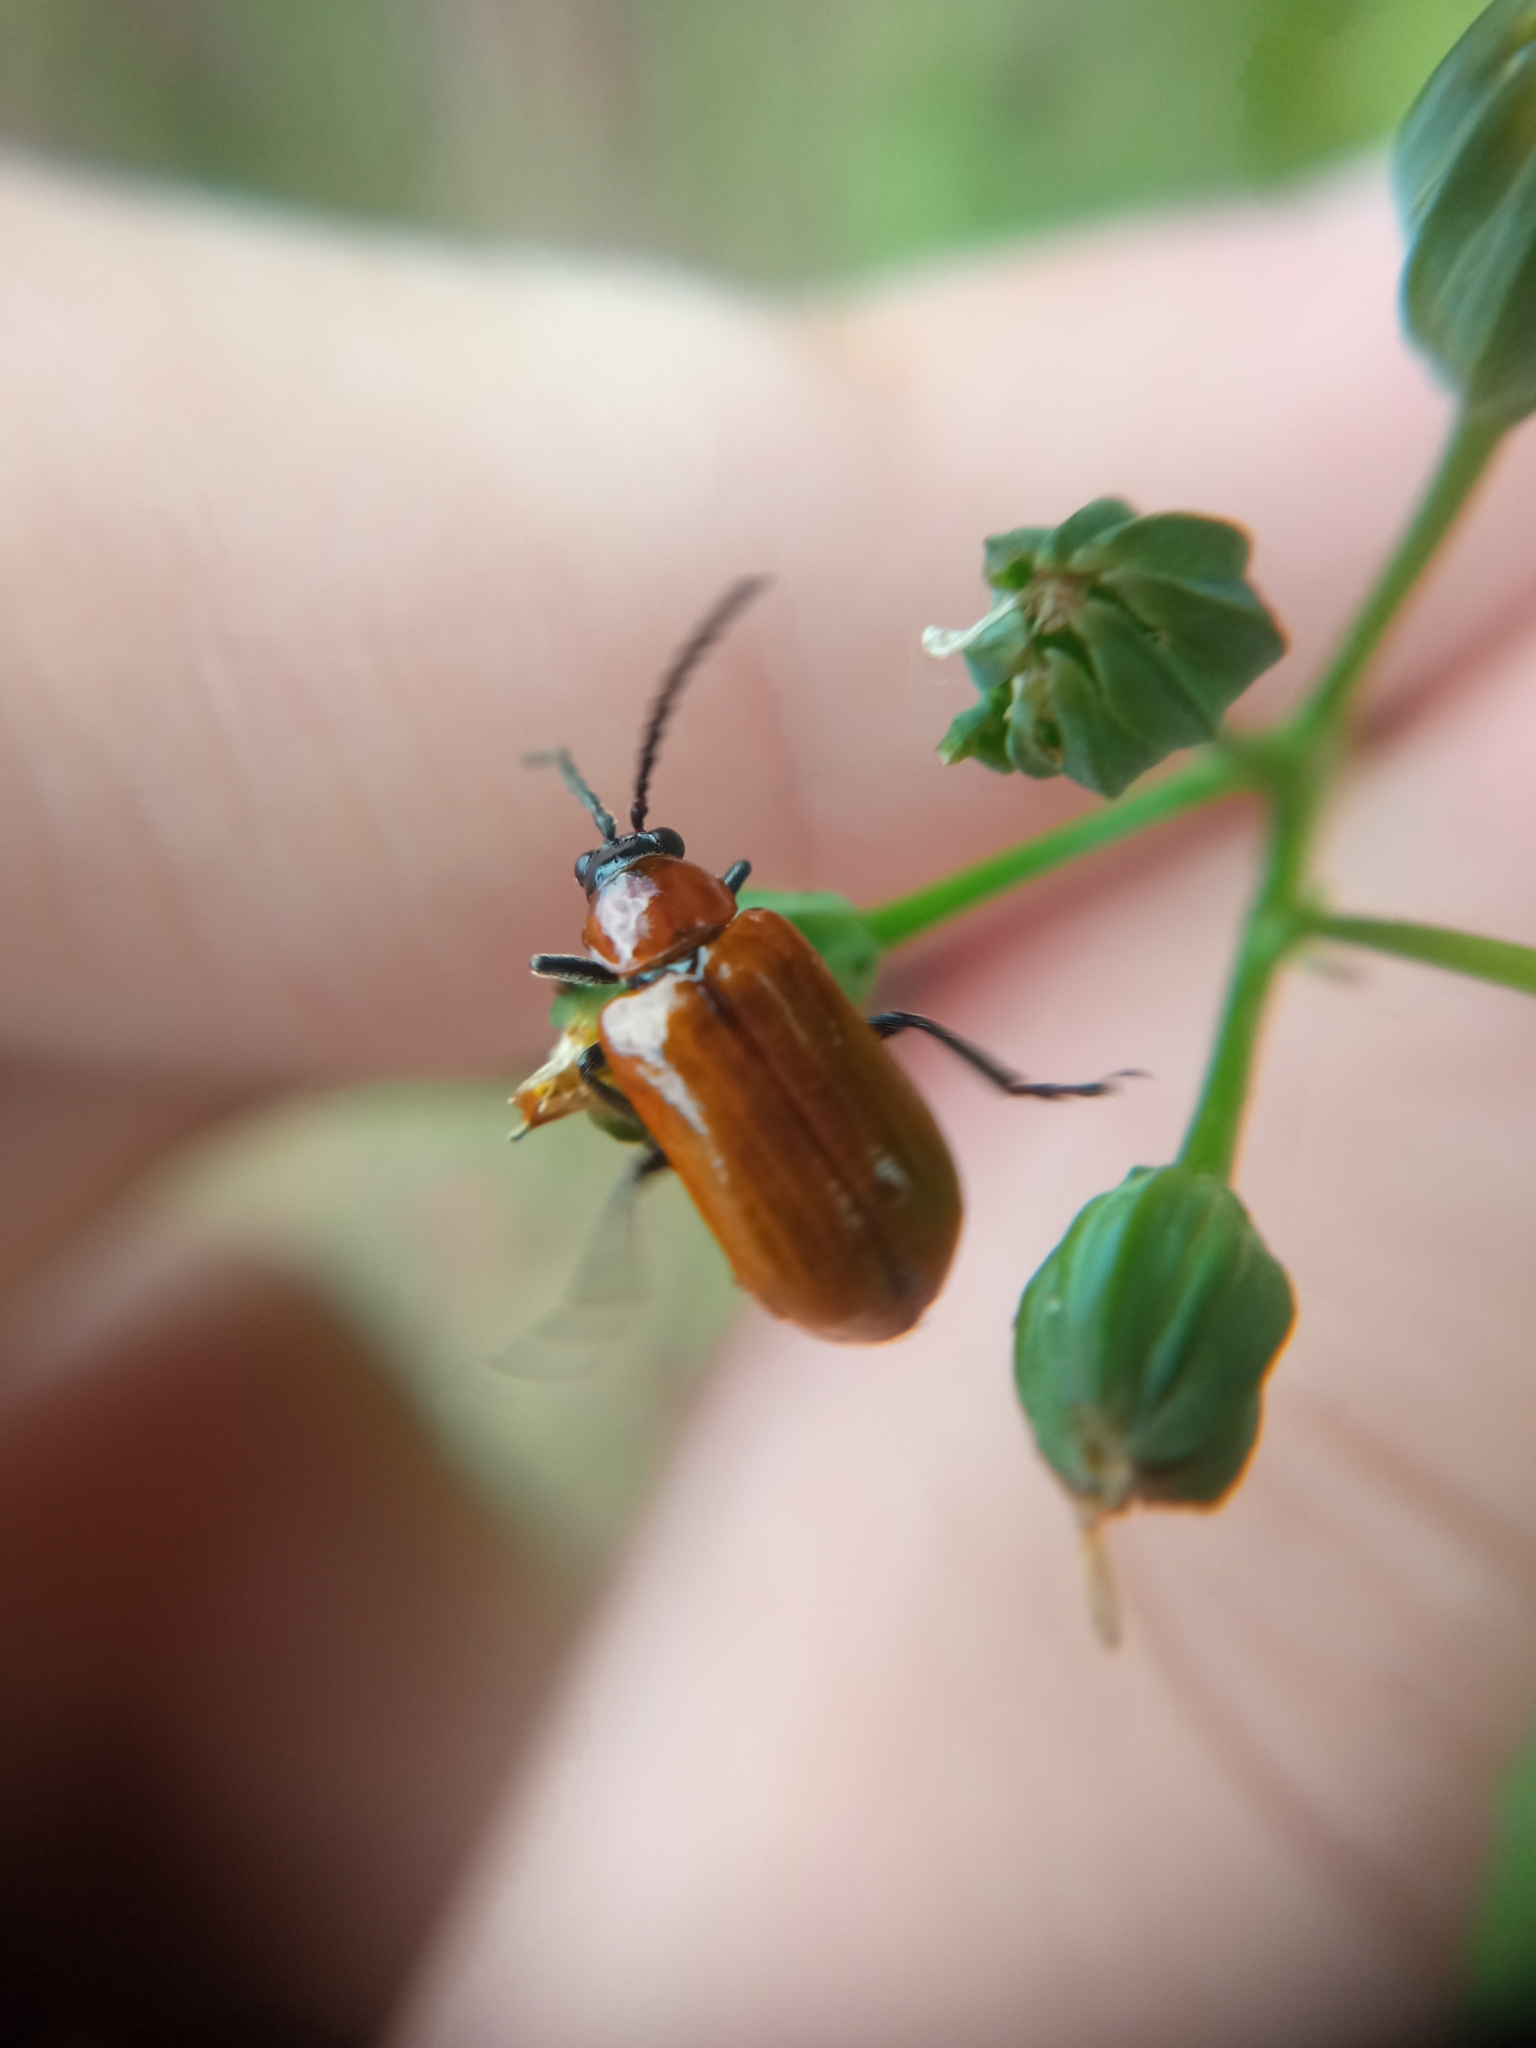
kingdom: Animalia
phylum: Arthropoda
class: Insecta
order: Coleoptera
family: Chrysomelidae
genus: Exosoma
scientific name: Exosoma lusitanicum
